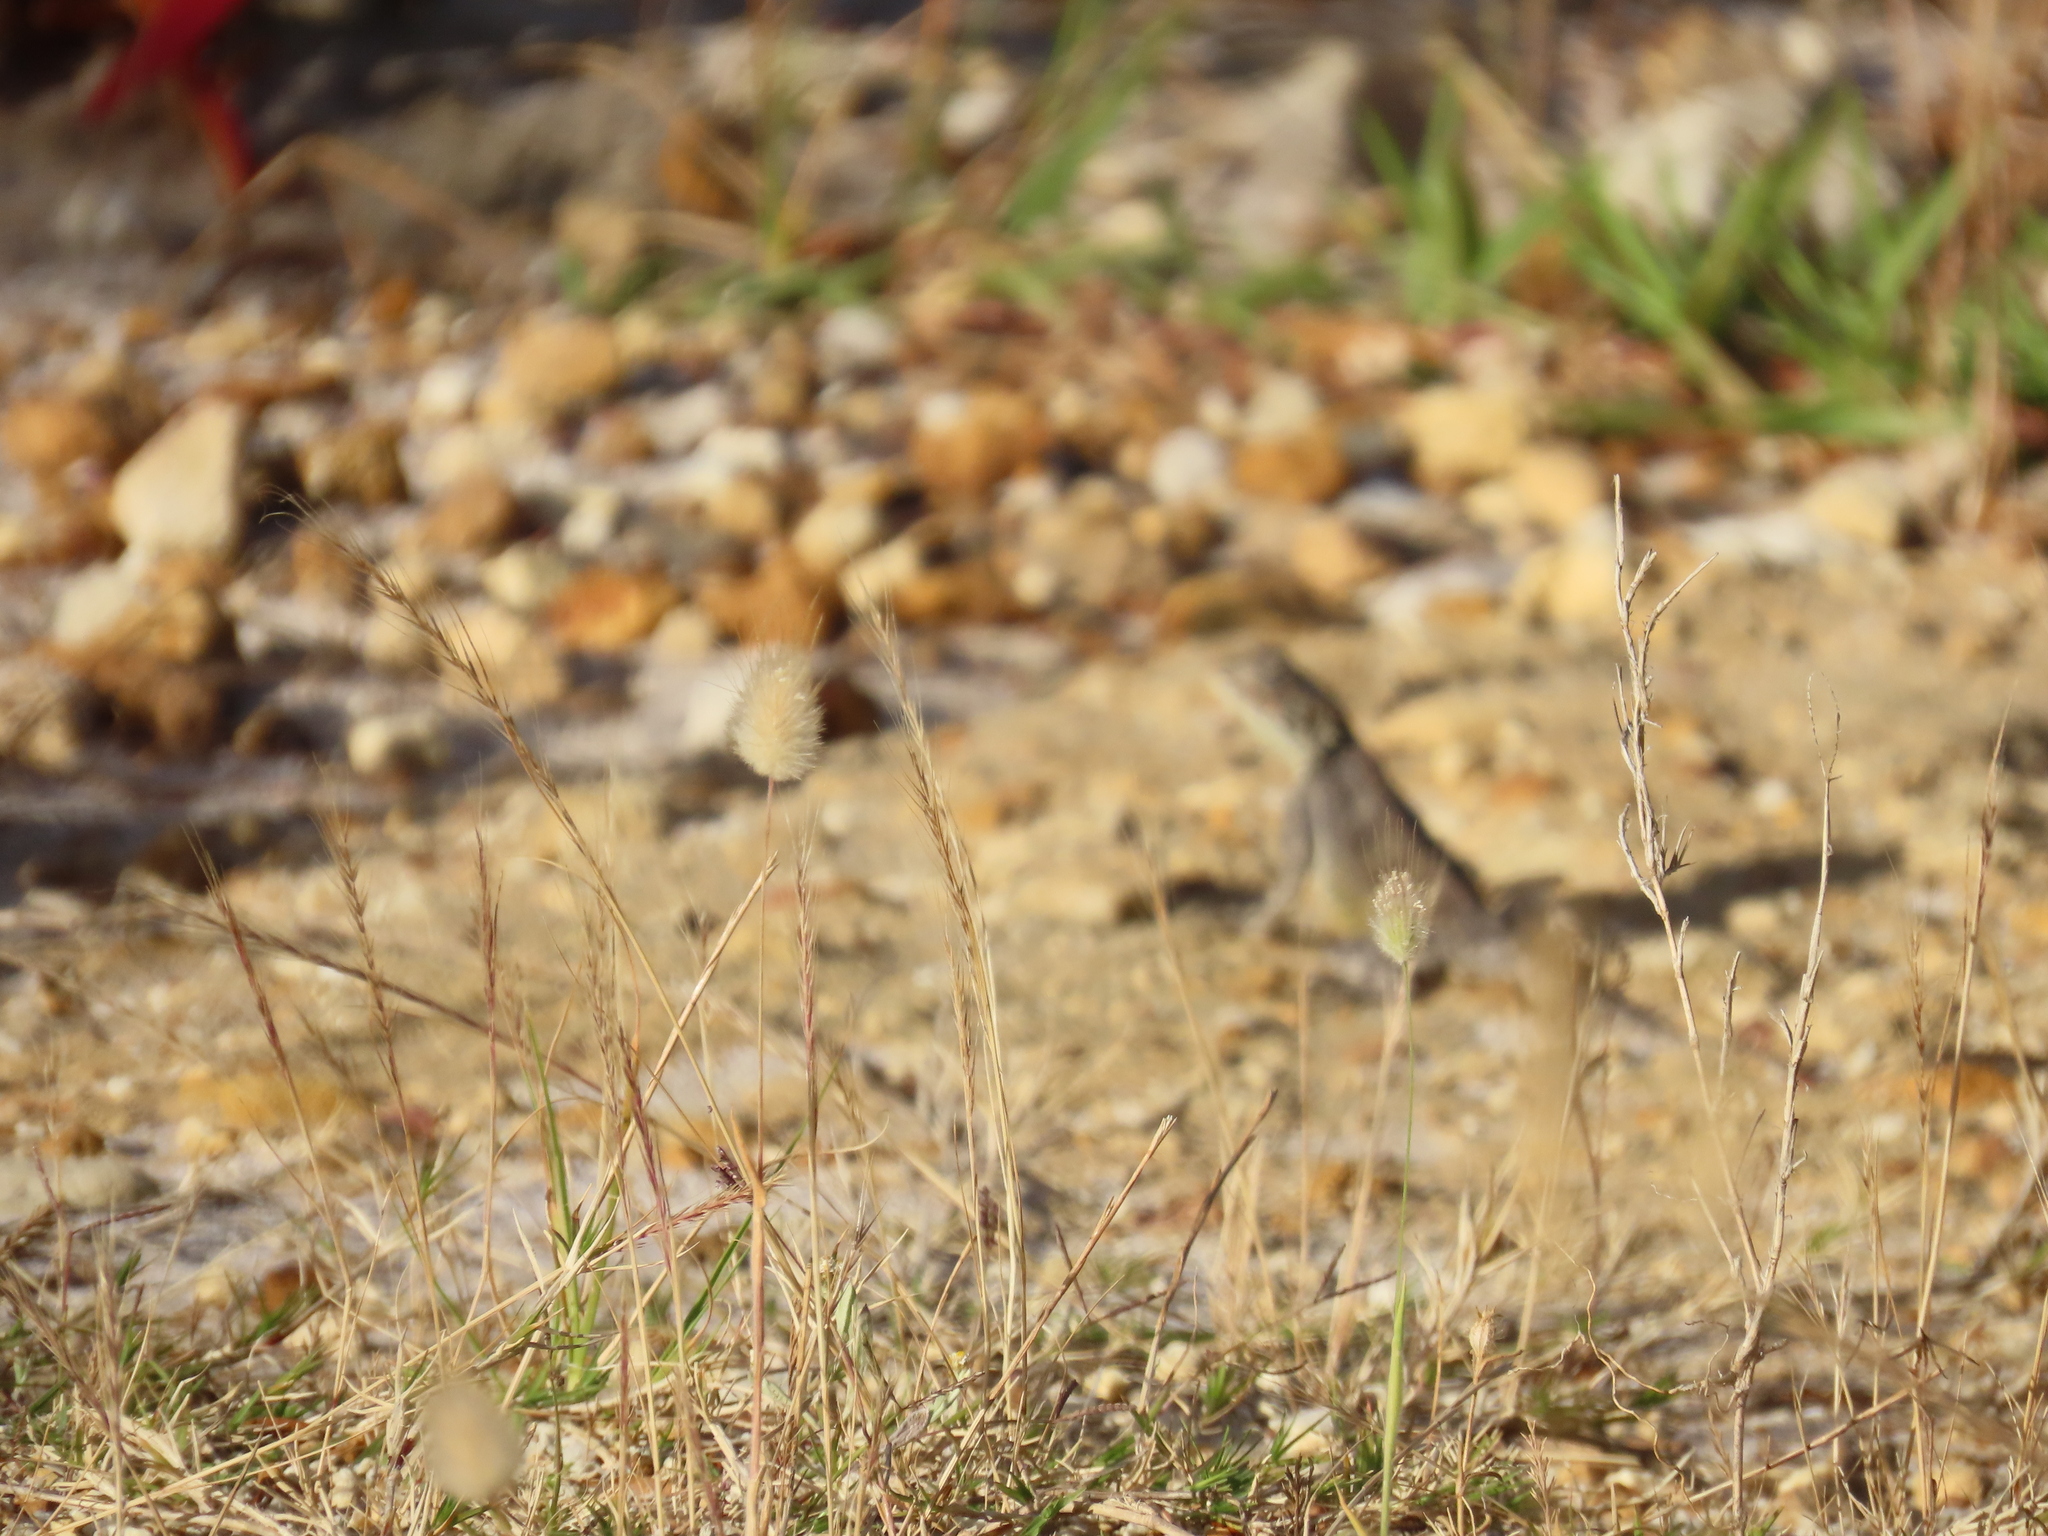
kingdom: Animalia
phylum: Chordata
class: Squamata
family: Agamidae
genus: Agama
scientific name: Agama atra
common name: Southern african rock agama
